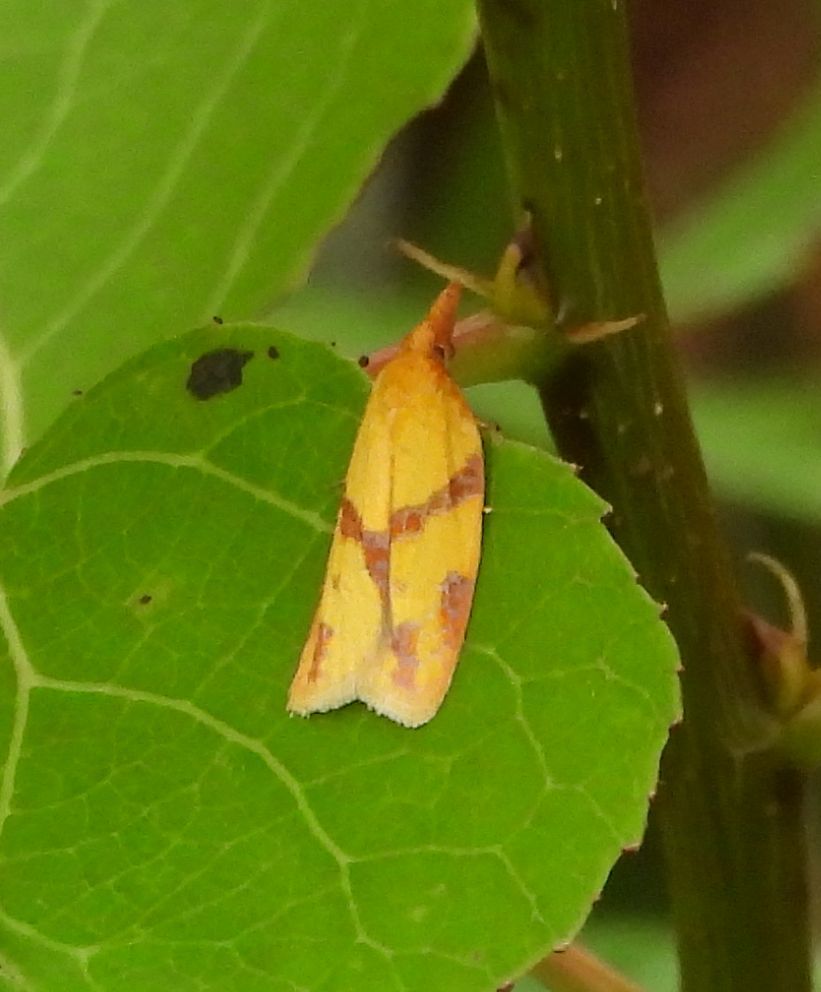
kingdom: Animalia
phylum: Arthropoda
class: Insecta
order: Lepidoptera
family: Tortricidae
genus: Sparganothis
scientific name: Sparganothis unifasciana
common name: One-lined sparganothis moth
